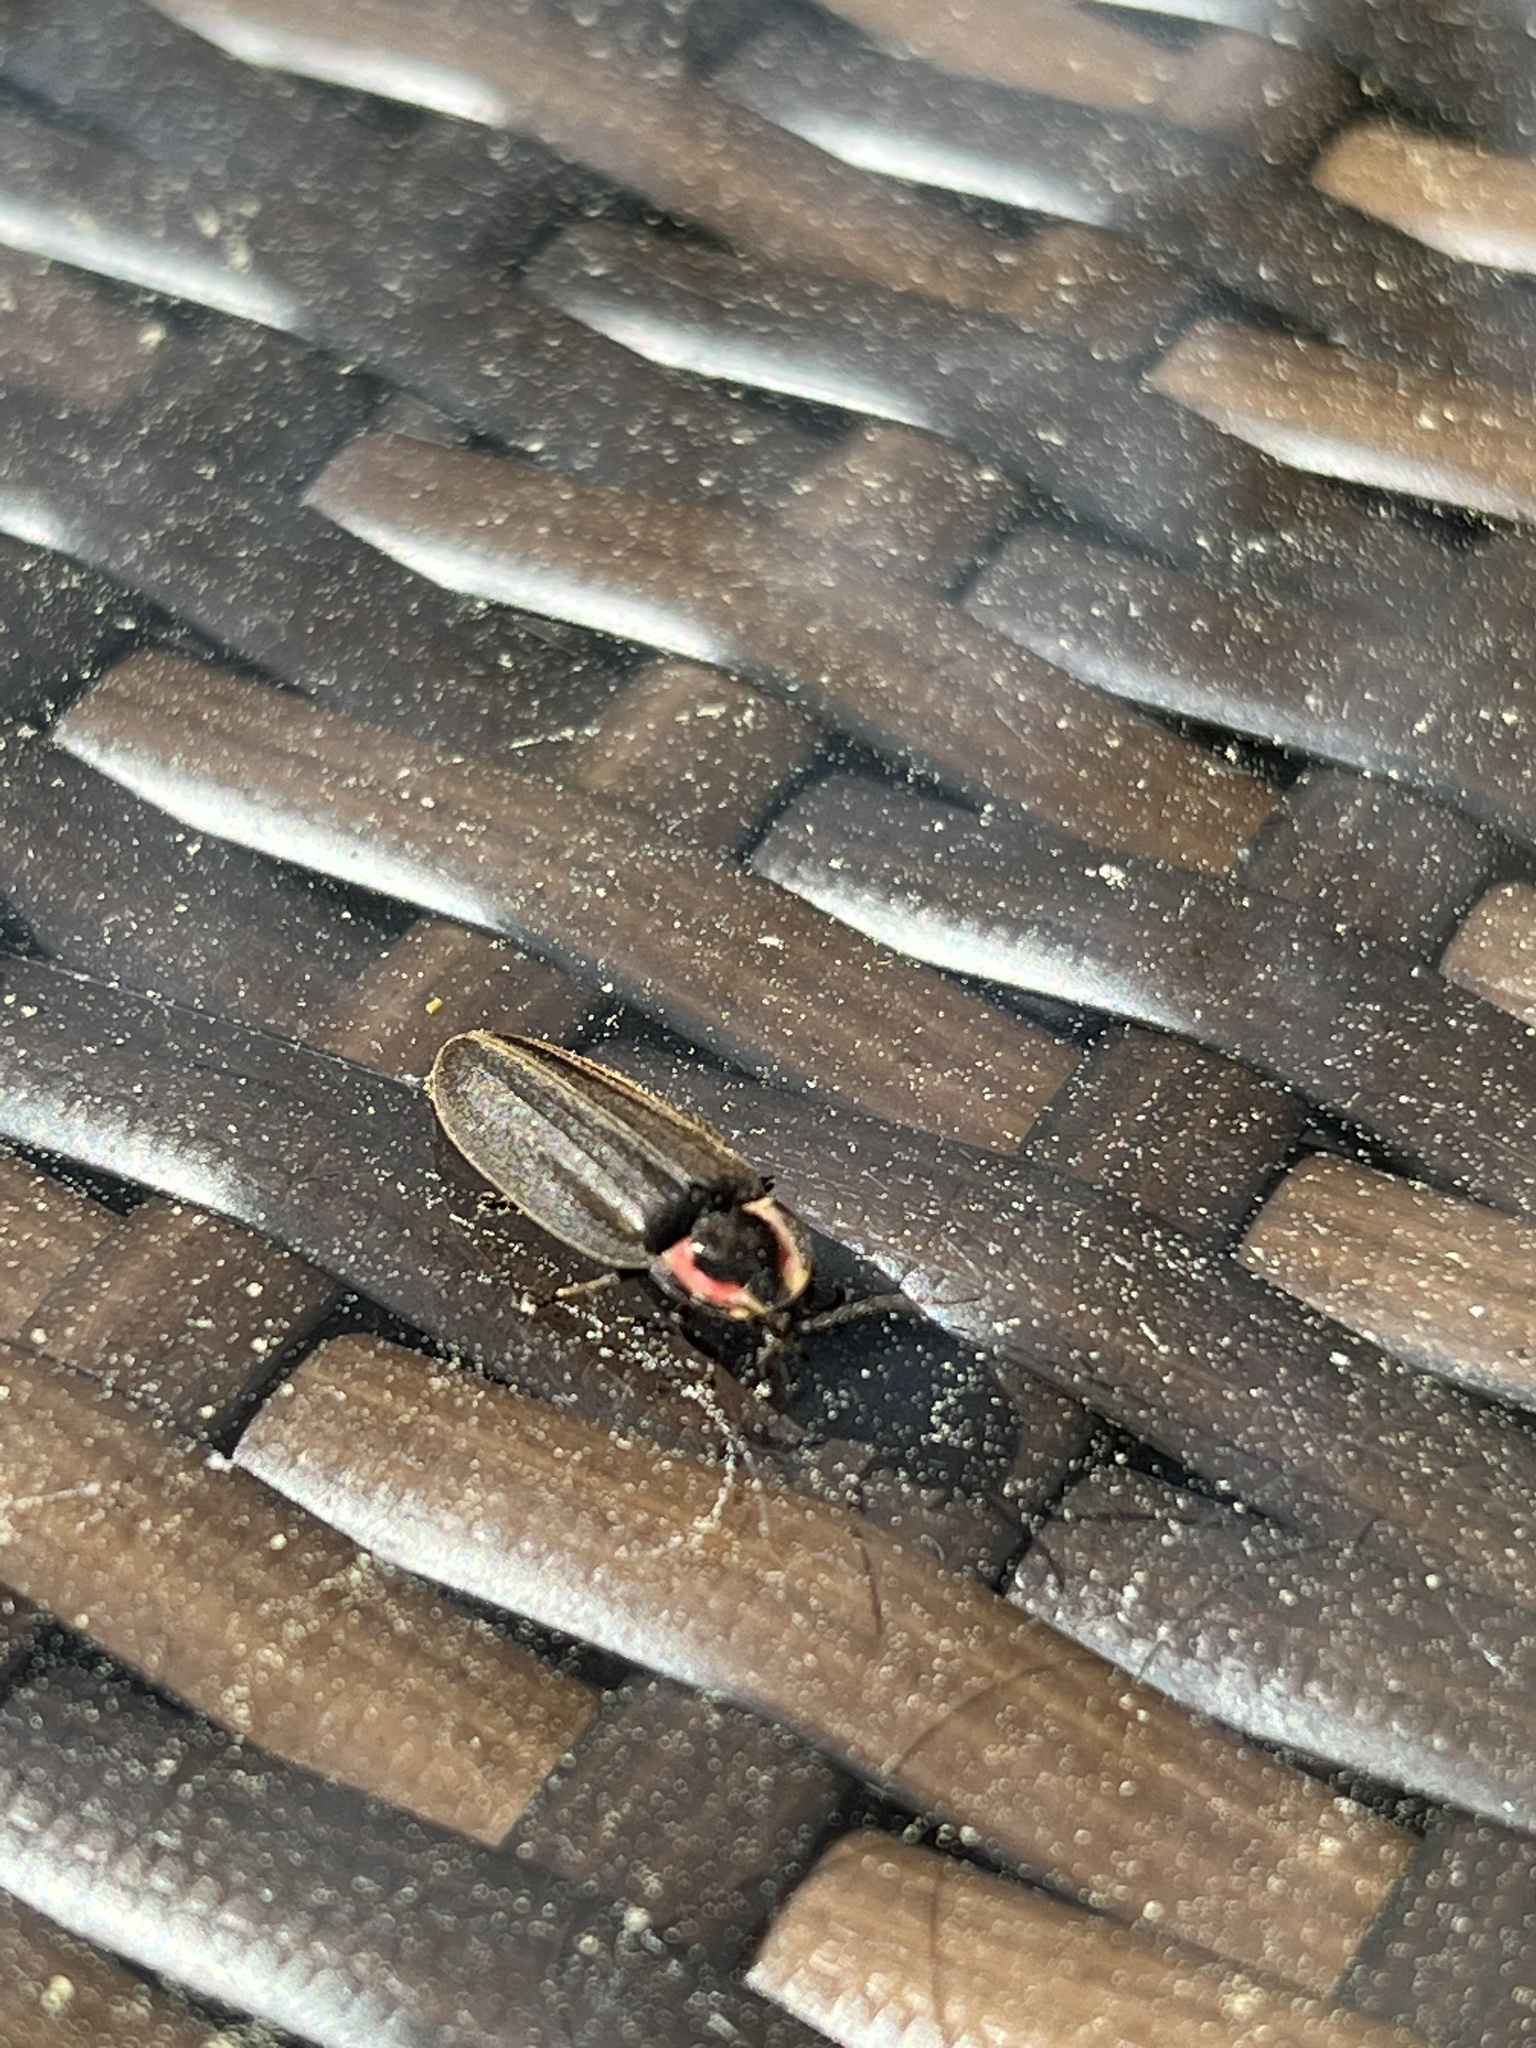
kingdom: Animalia
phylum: Arthropoda
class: Insecta
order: Coleoptera
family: Lampyridae
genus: Photinus
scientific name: Photinus corrusca
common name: Winter firefly
